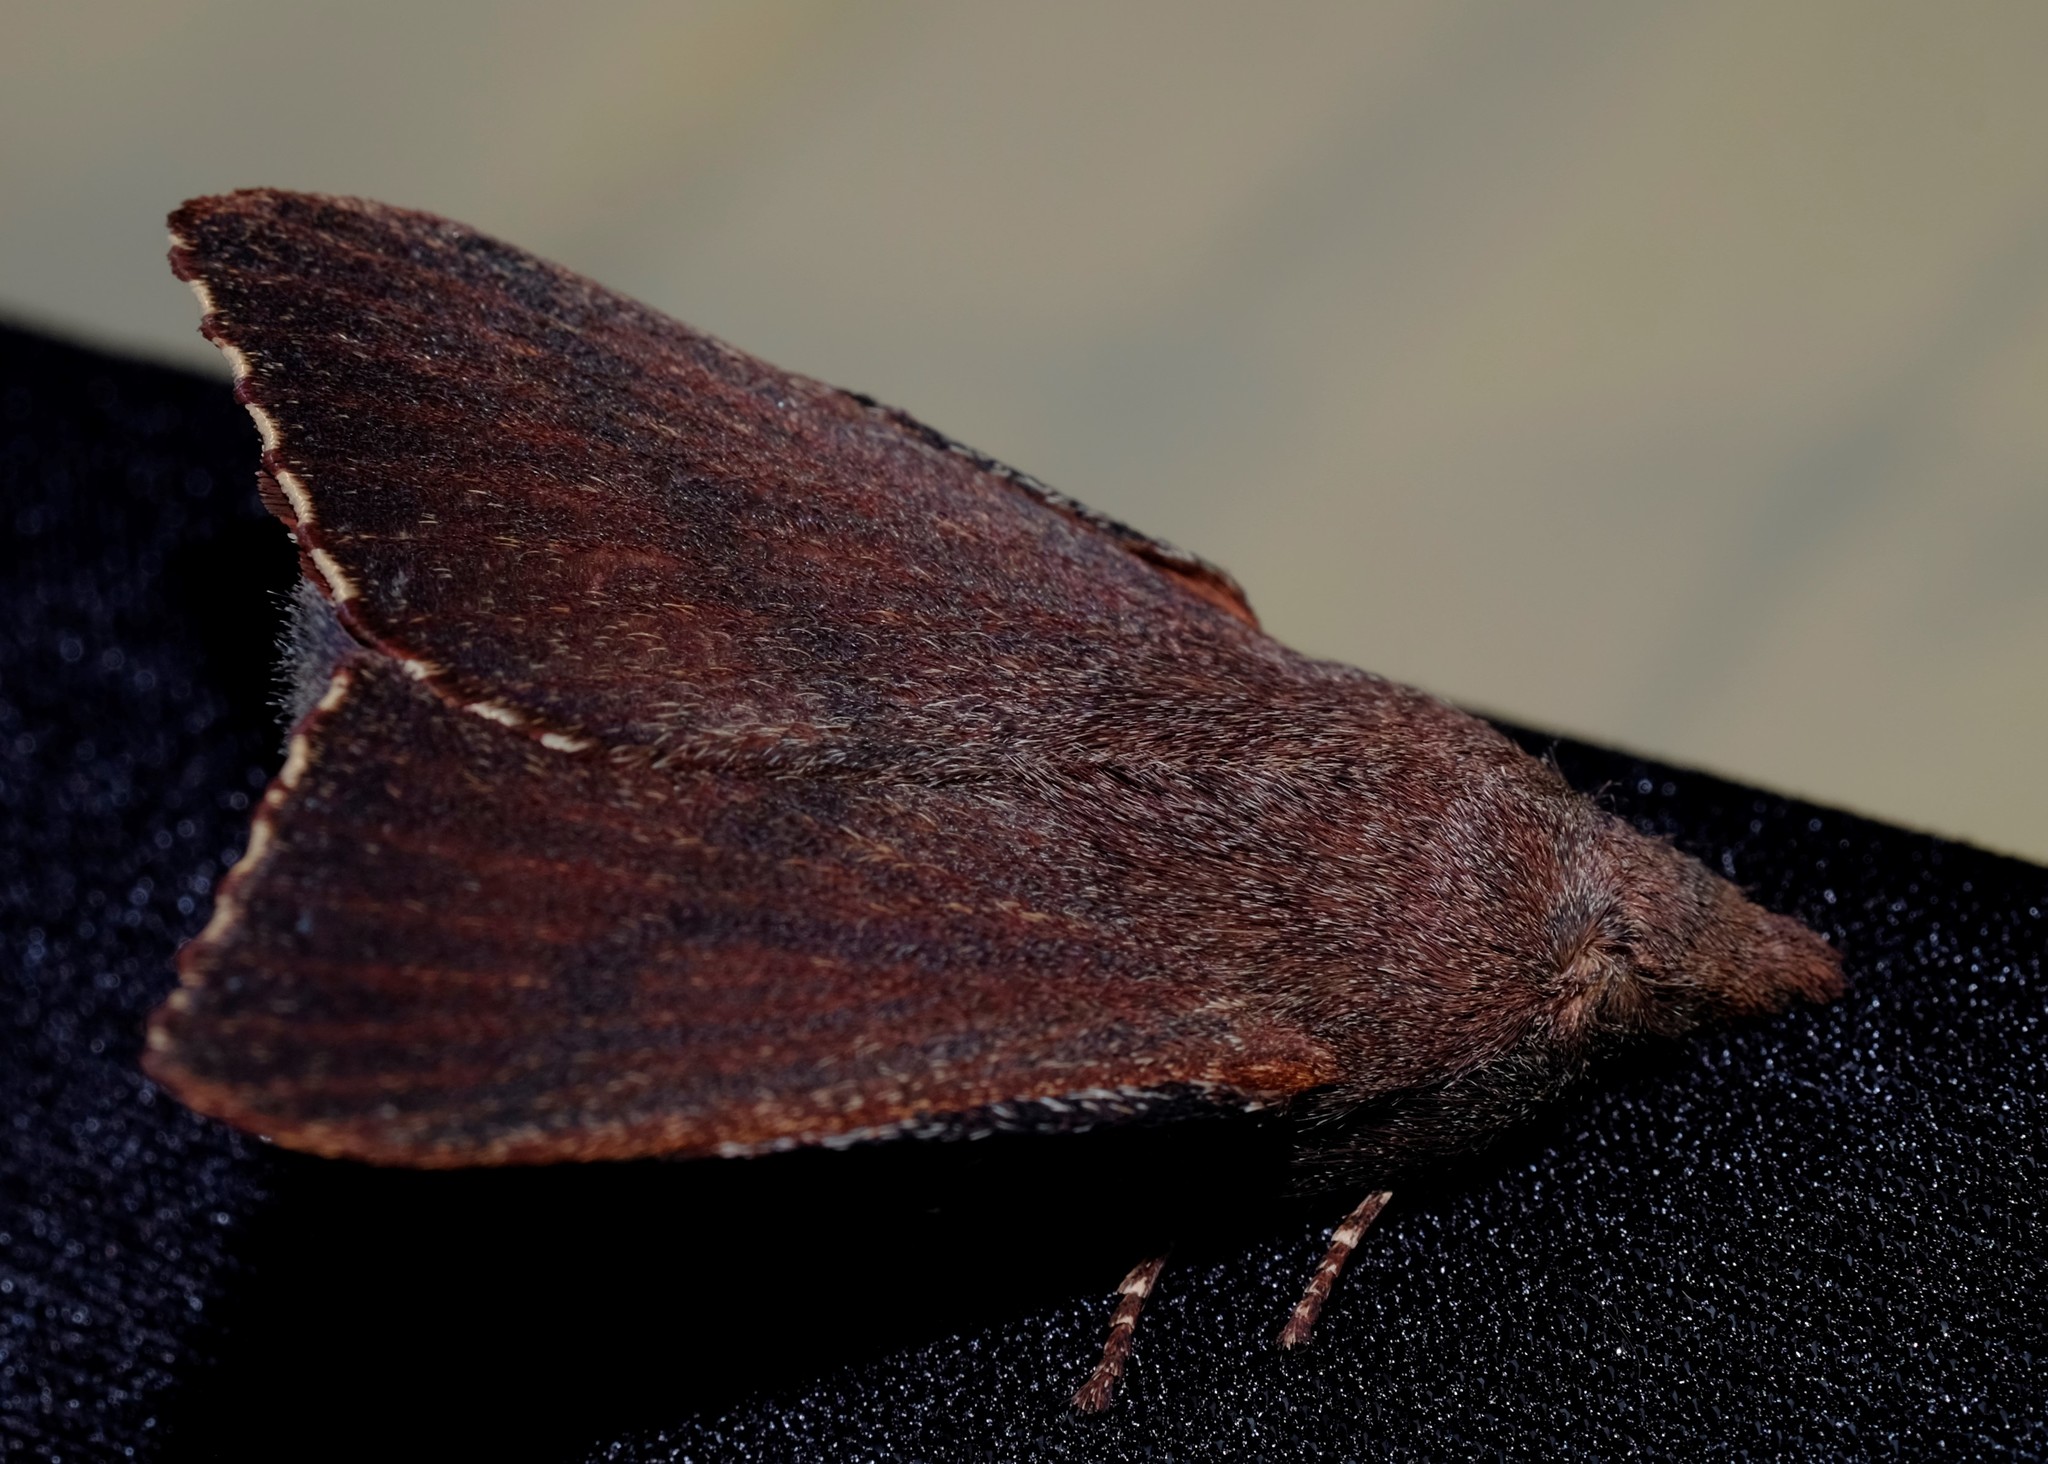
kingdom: Animalia
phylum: Arthropoda
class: Insecta
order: Lepidoptera
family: Lasiocampidae
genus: Pararguda
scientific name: Pararguda rufescens
